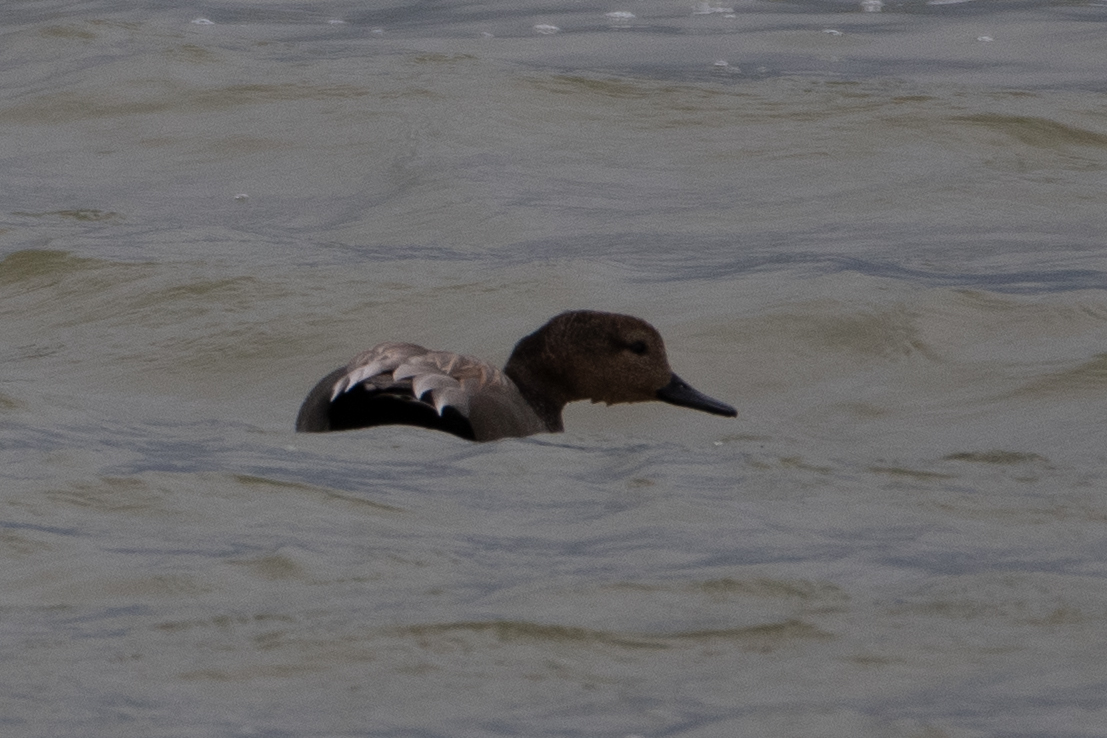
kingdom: Animalia
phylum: Chordata
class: Aves
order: Anseriformes
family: Anatidae
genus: Mareca
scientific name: Mareca strepera
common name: Gadwall
